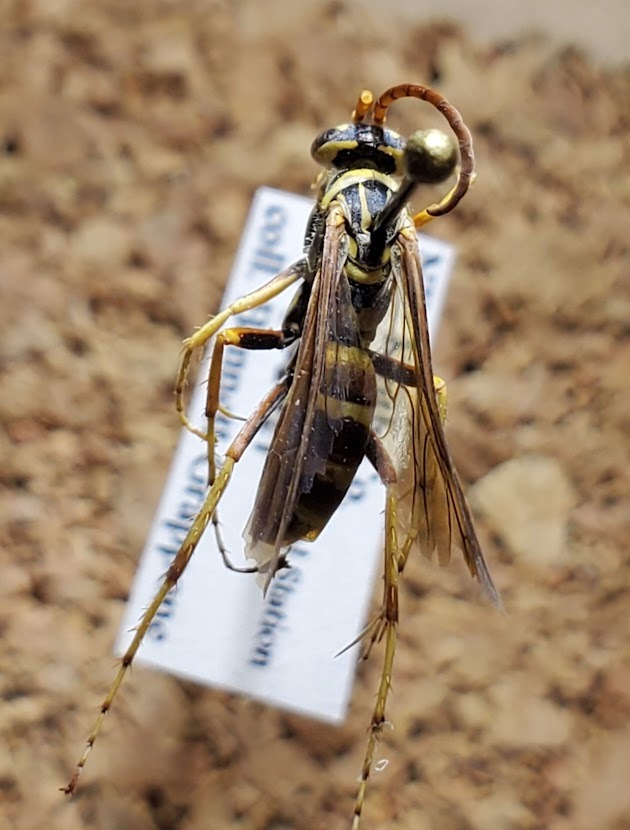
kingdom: Animalia
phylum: Arthropoda
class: Insecta
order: Hymenoptera
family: Pompilidae
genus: Poecilopompilus
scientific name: Poecilopompilus interruptus
